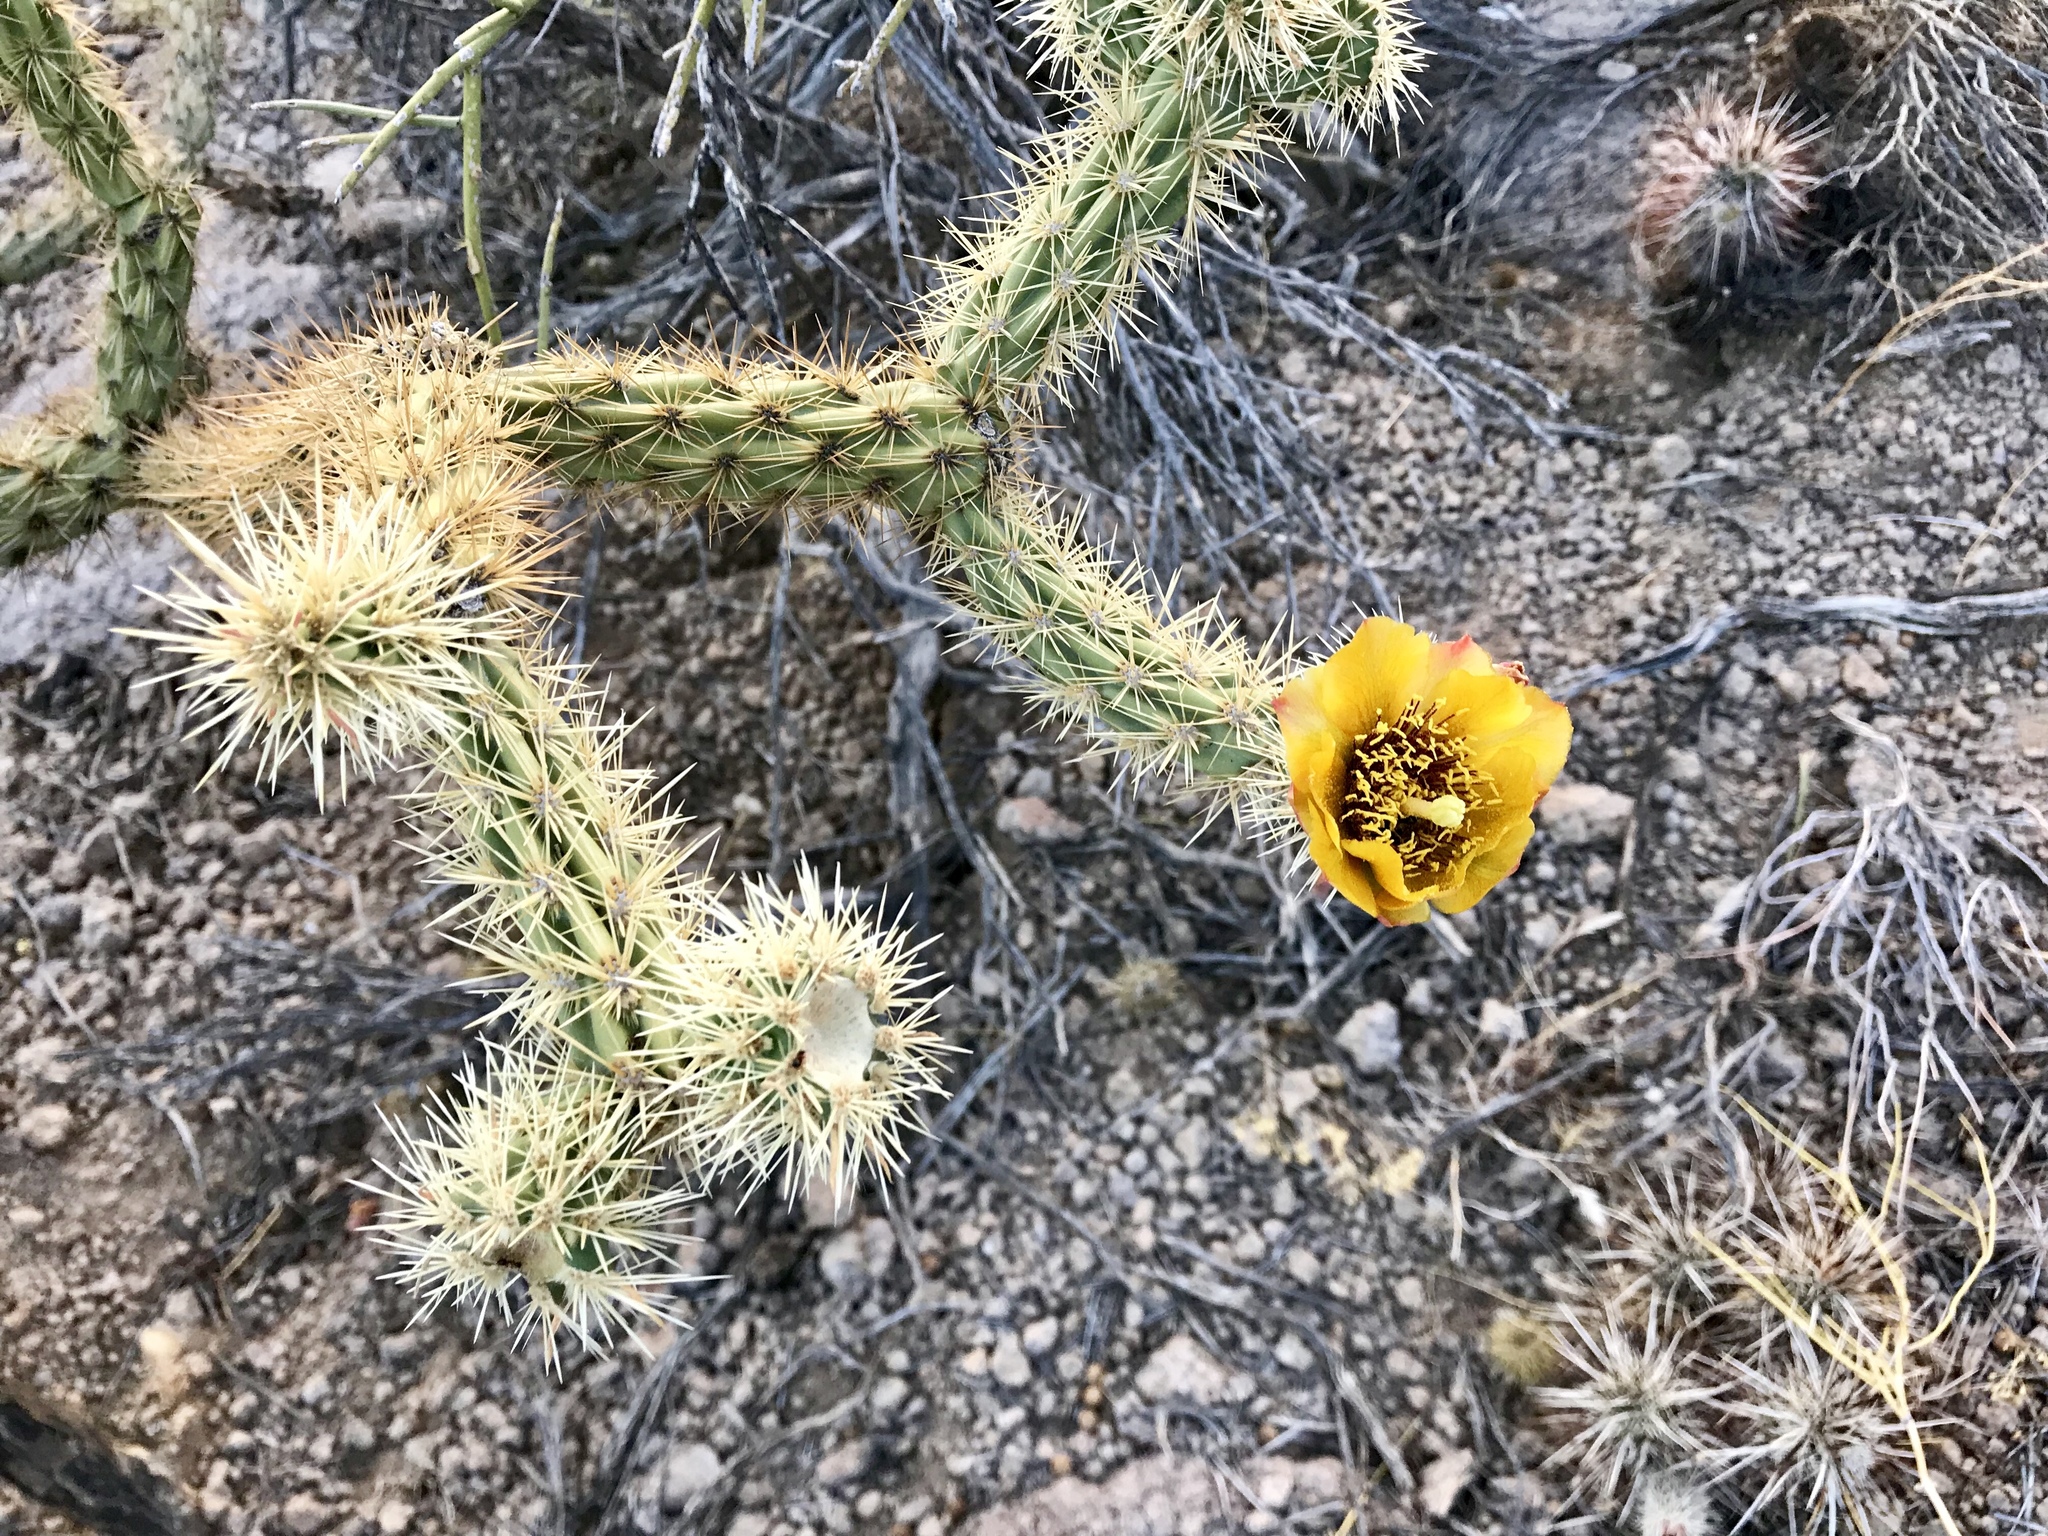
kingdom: Plantae
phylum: Tracheophyta
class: Magnoliopsida
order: Caryophyllales
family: Cactaceae
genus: Cylindropuntia
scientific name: Cylindropuntia acanthocarpa
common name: Buckhorn cholla
